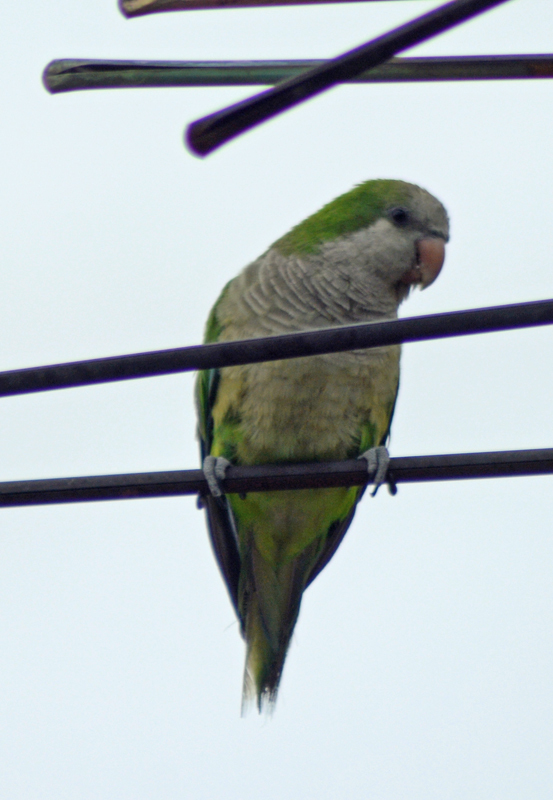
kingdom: Animalia
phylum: Chordata
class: Aves
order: Psittaciformes
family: Psittacidae
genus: Myiopsitta
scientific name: Myiopsitta monachus
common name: Monk parakeet
